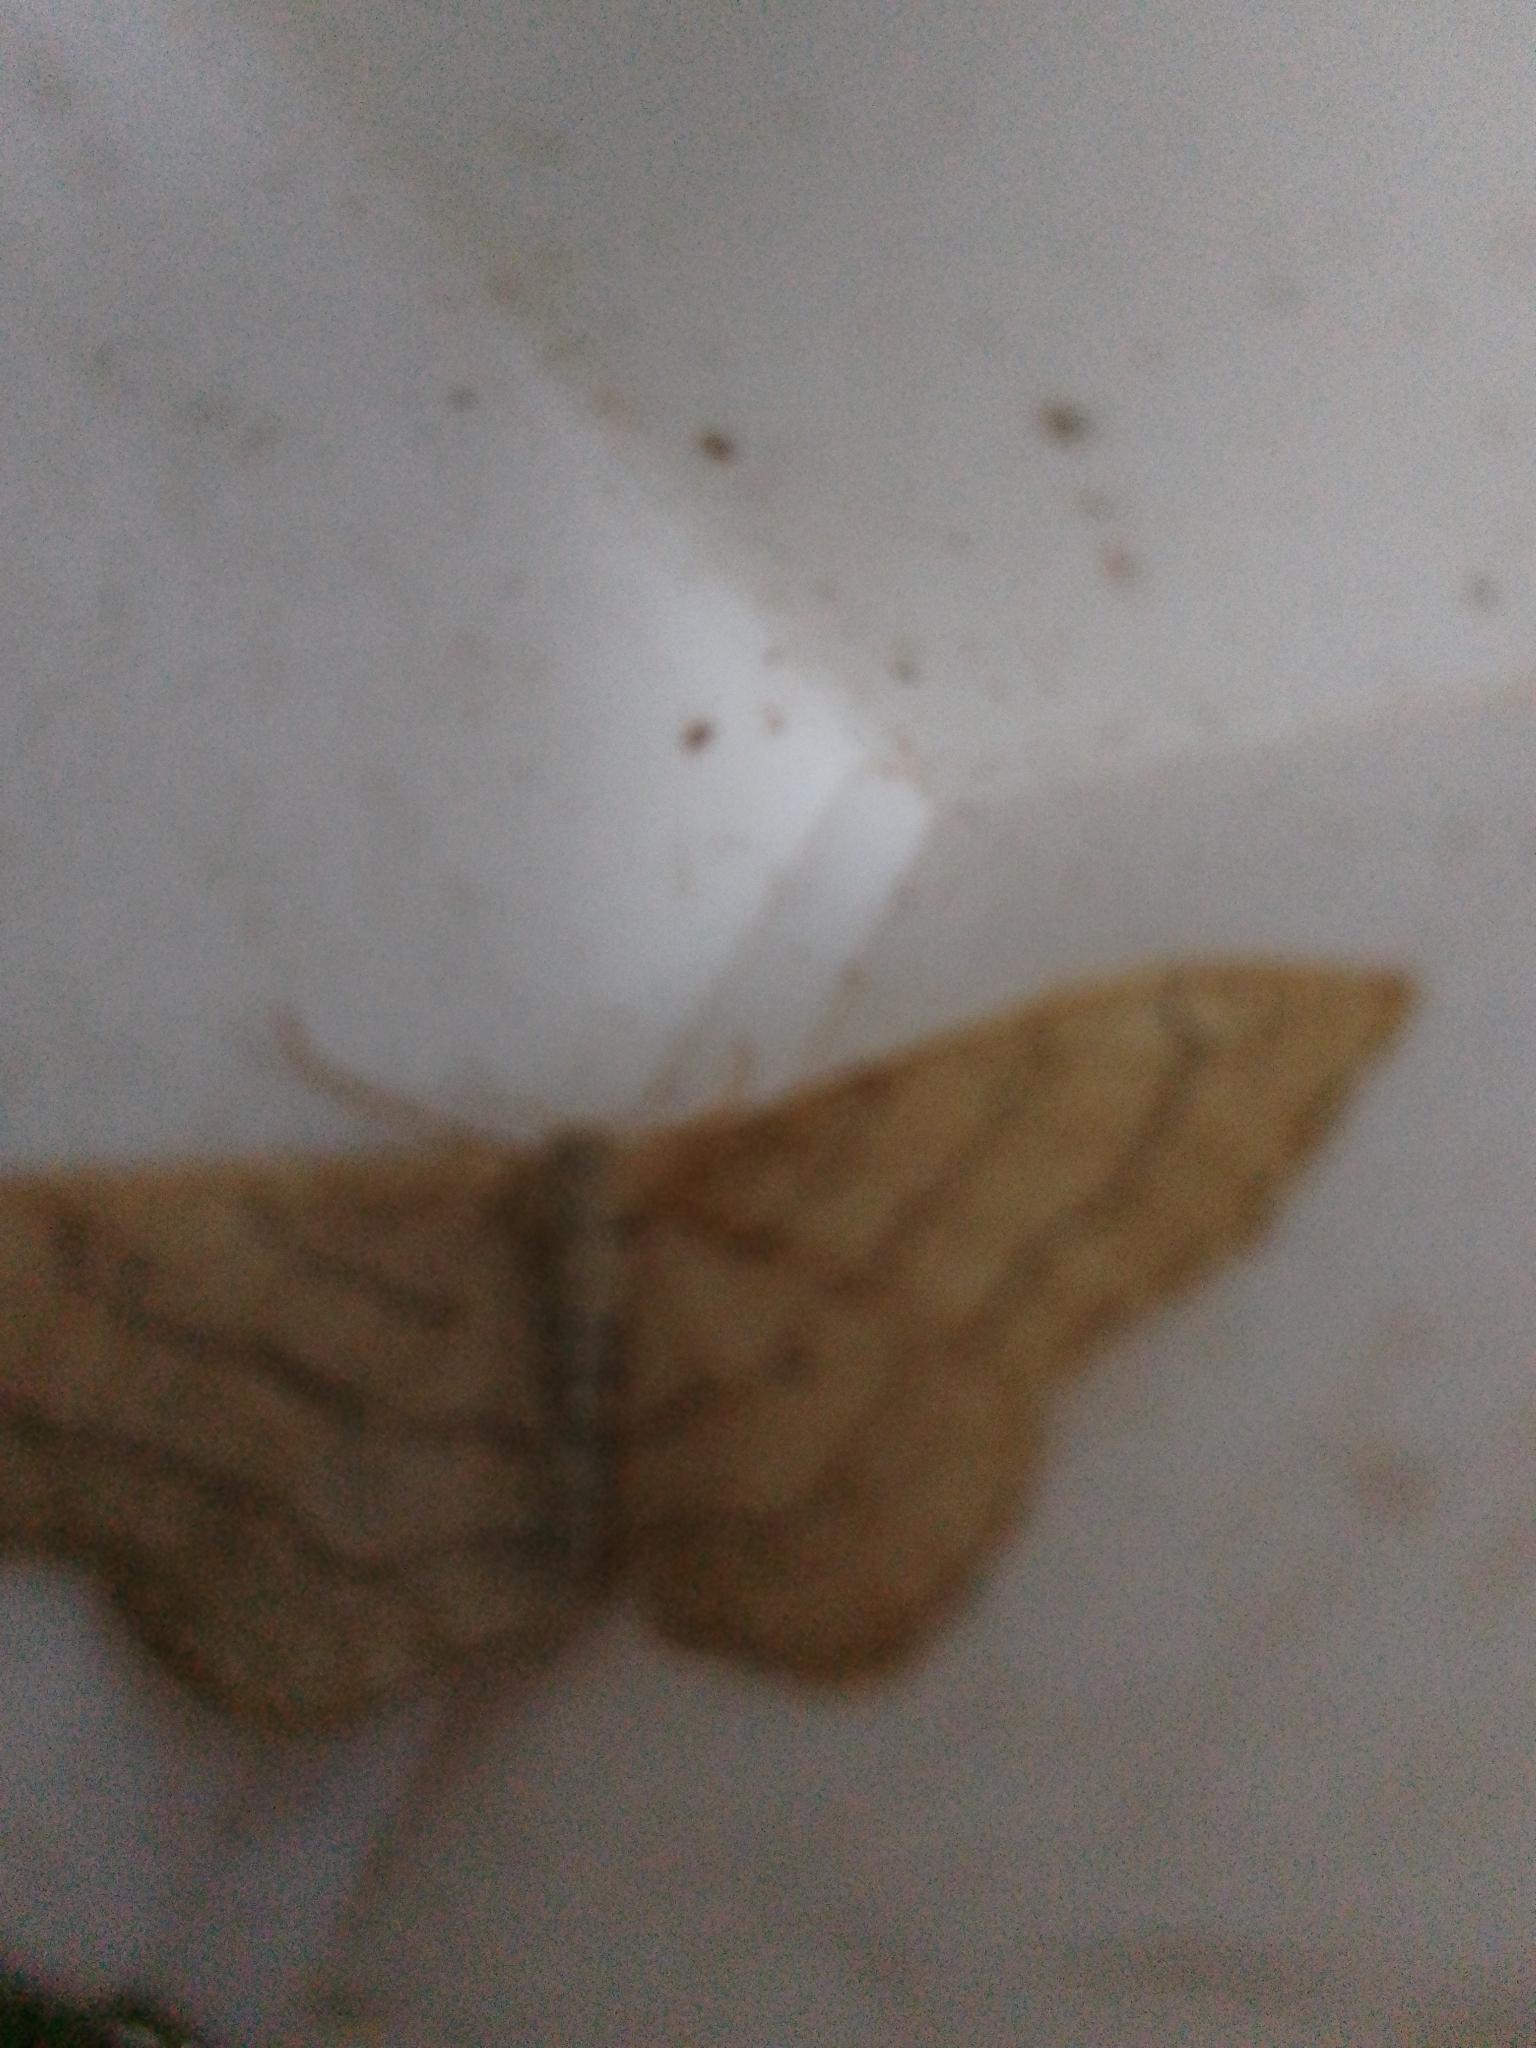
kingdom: Animalia
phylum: Arthropoda
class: Insecta
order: Lepidoptera
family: Geometridae
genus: Idaea
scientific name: Idaea aversata
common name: Riband wave
